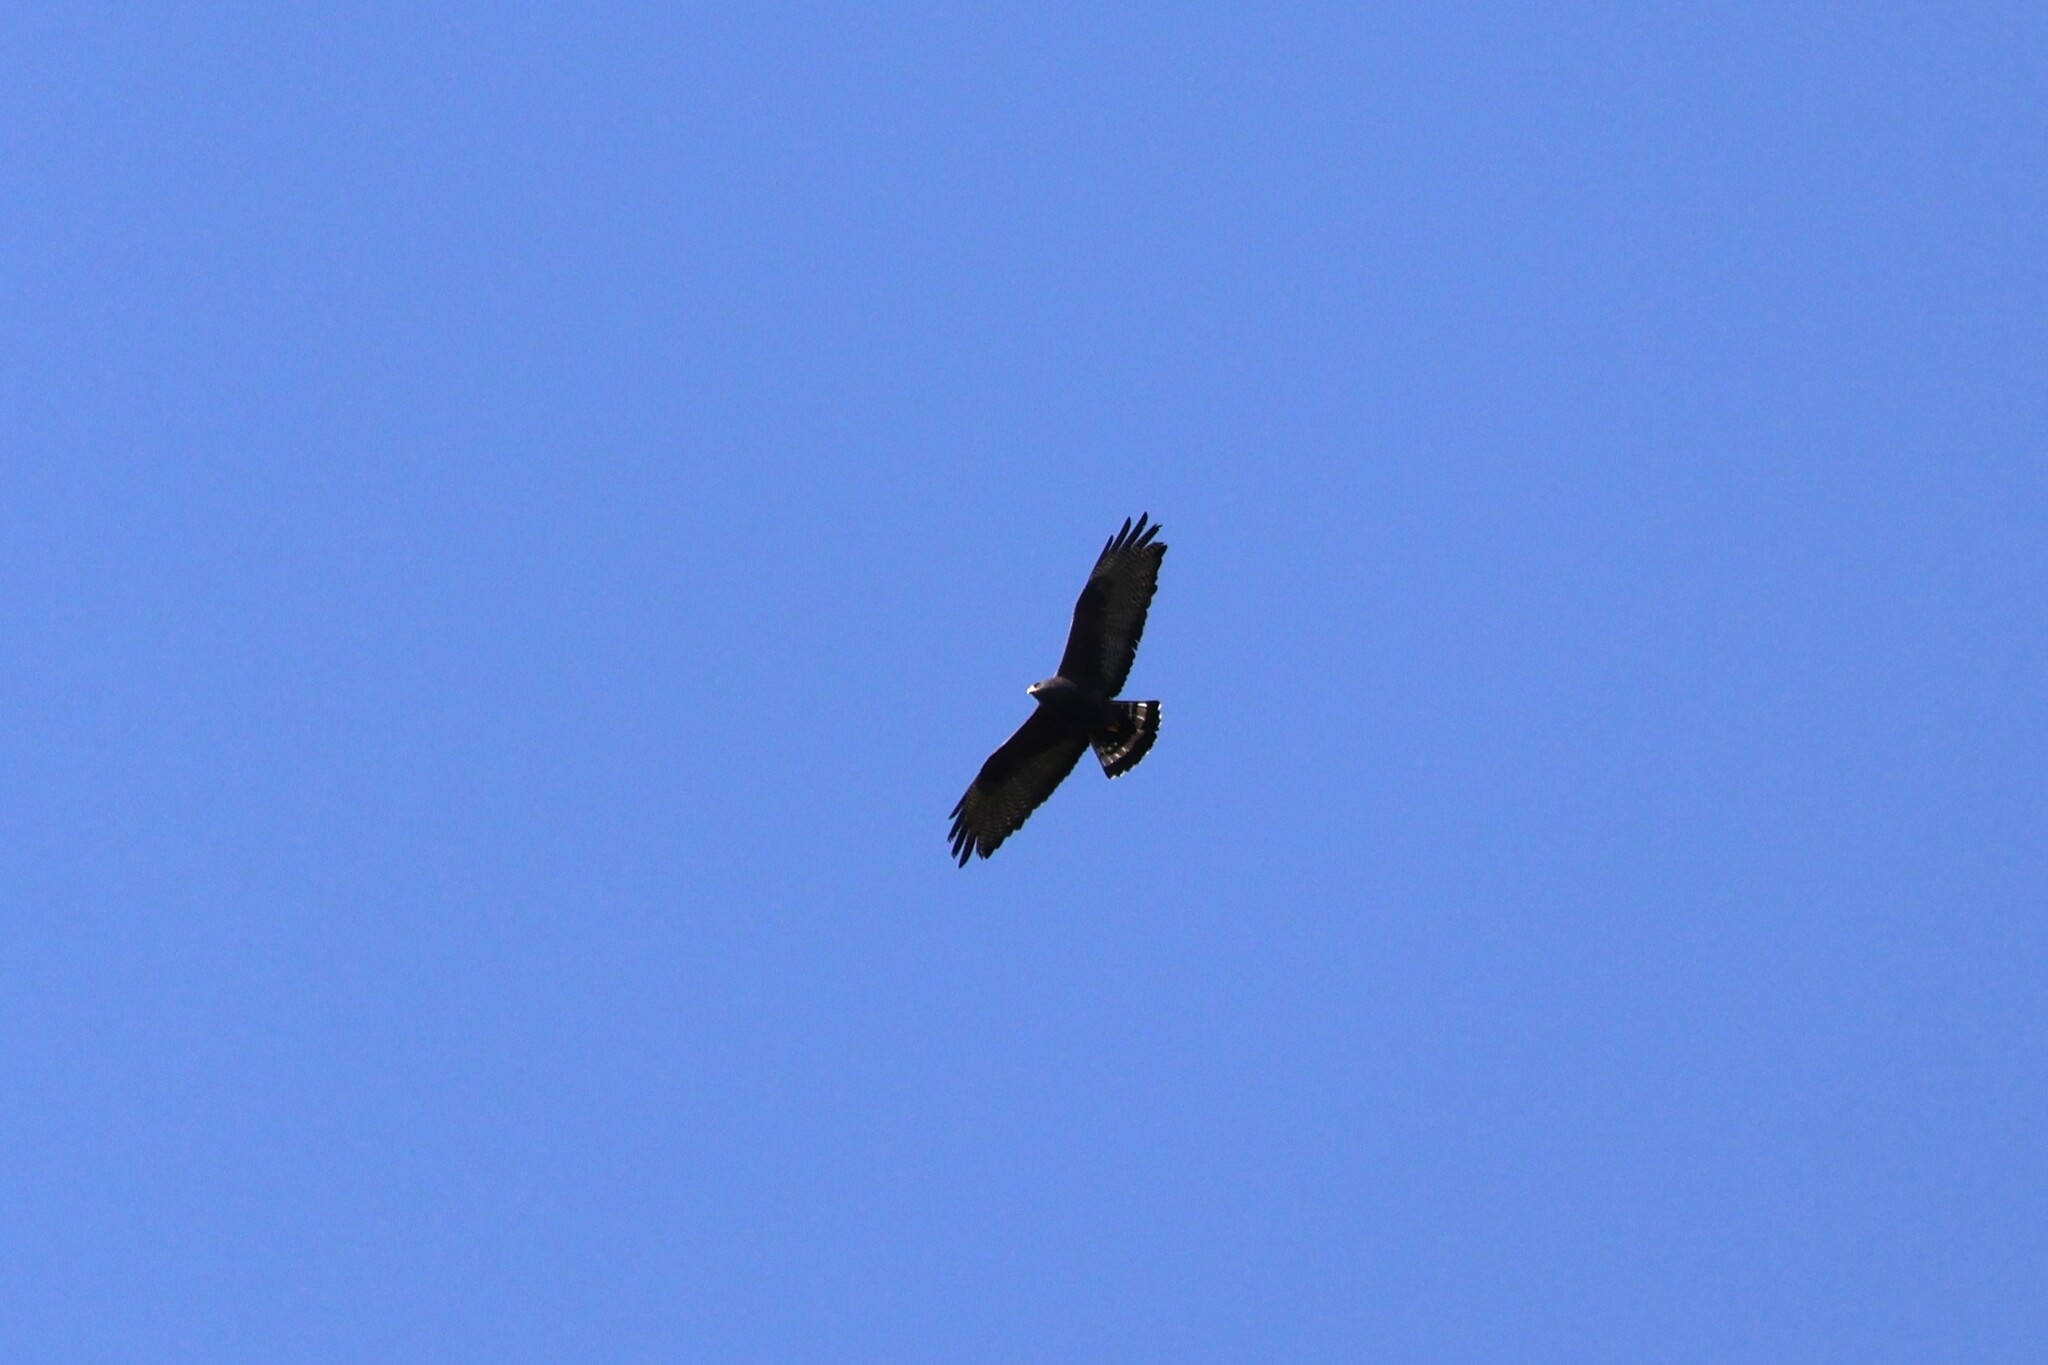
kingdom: Animalia
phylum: Chordata
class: Aves
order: Accipitriformes
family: Accipitridae
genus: Buteo
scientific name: Buteo albonotatus
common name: Zone-tailed hawk
